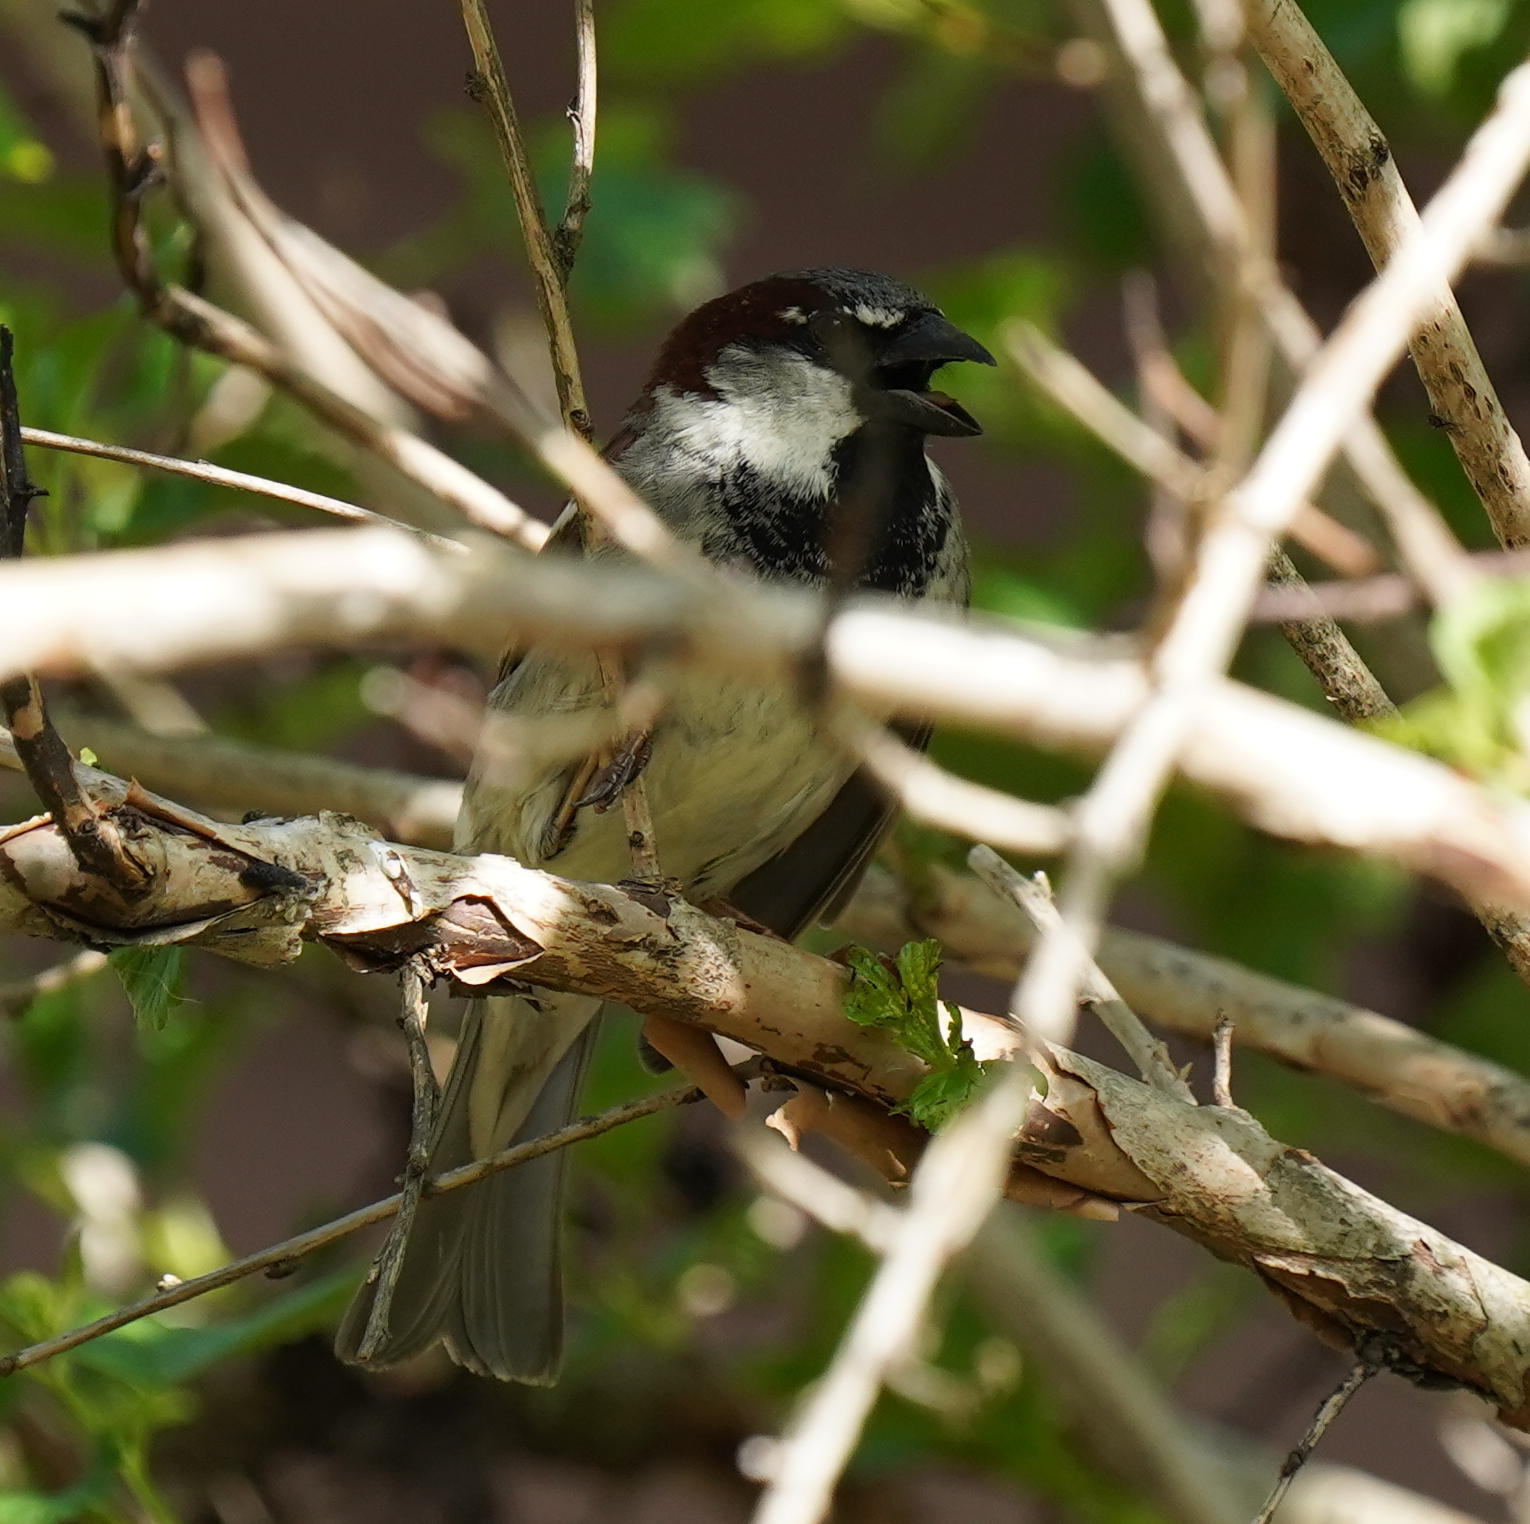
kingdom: Animalia
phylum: Chordata
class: Aves
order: Passeriformes
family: Passeridae
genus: Passer
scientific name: Passer domesticus
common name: House sparrow
